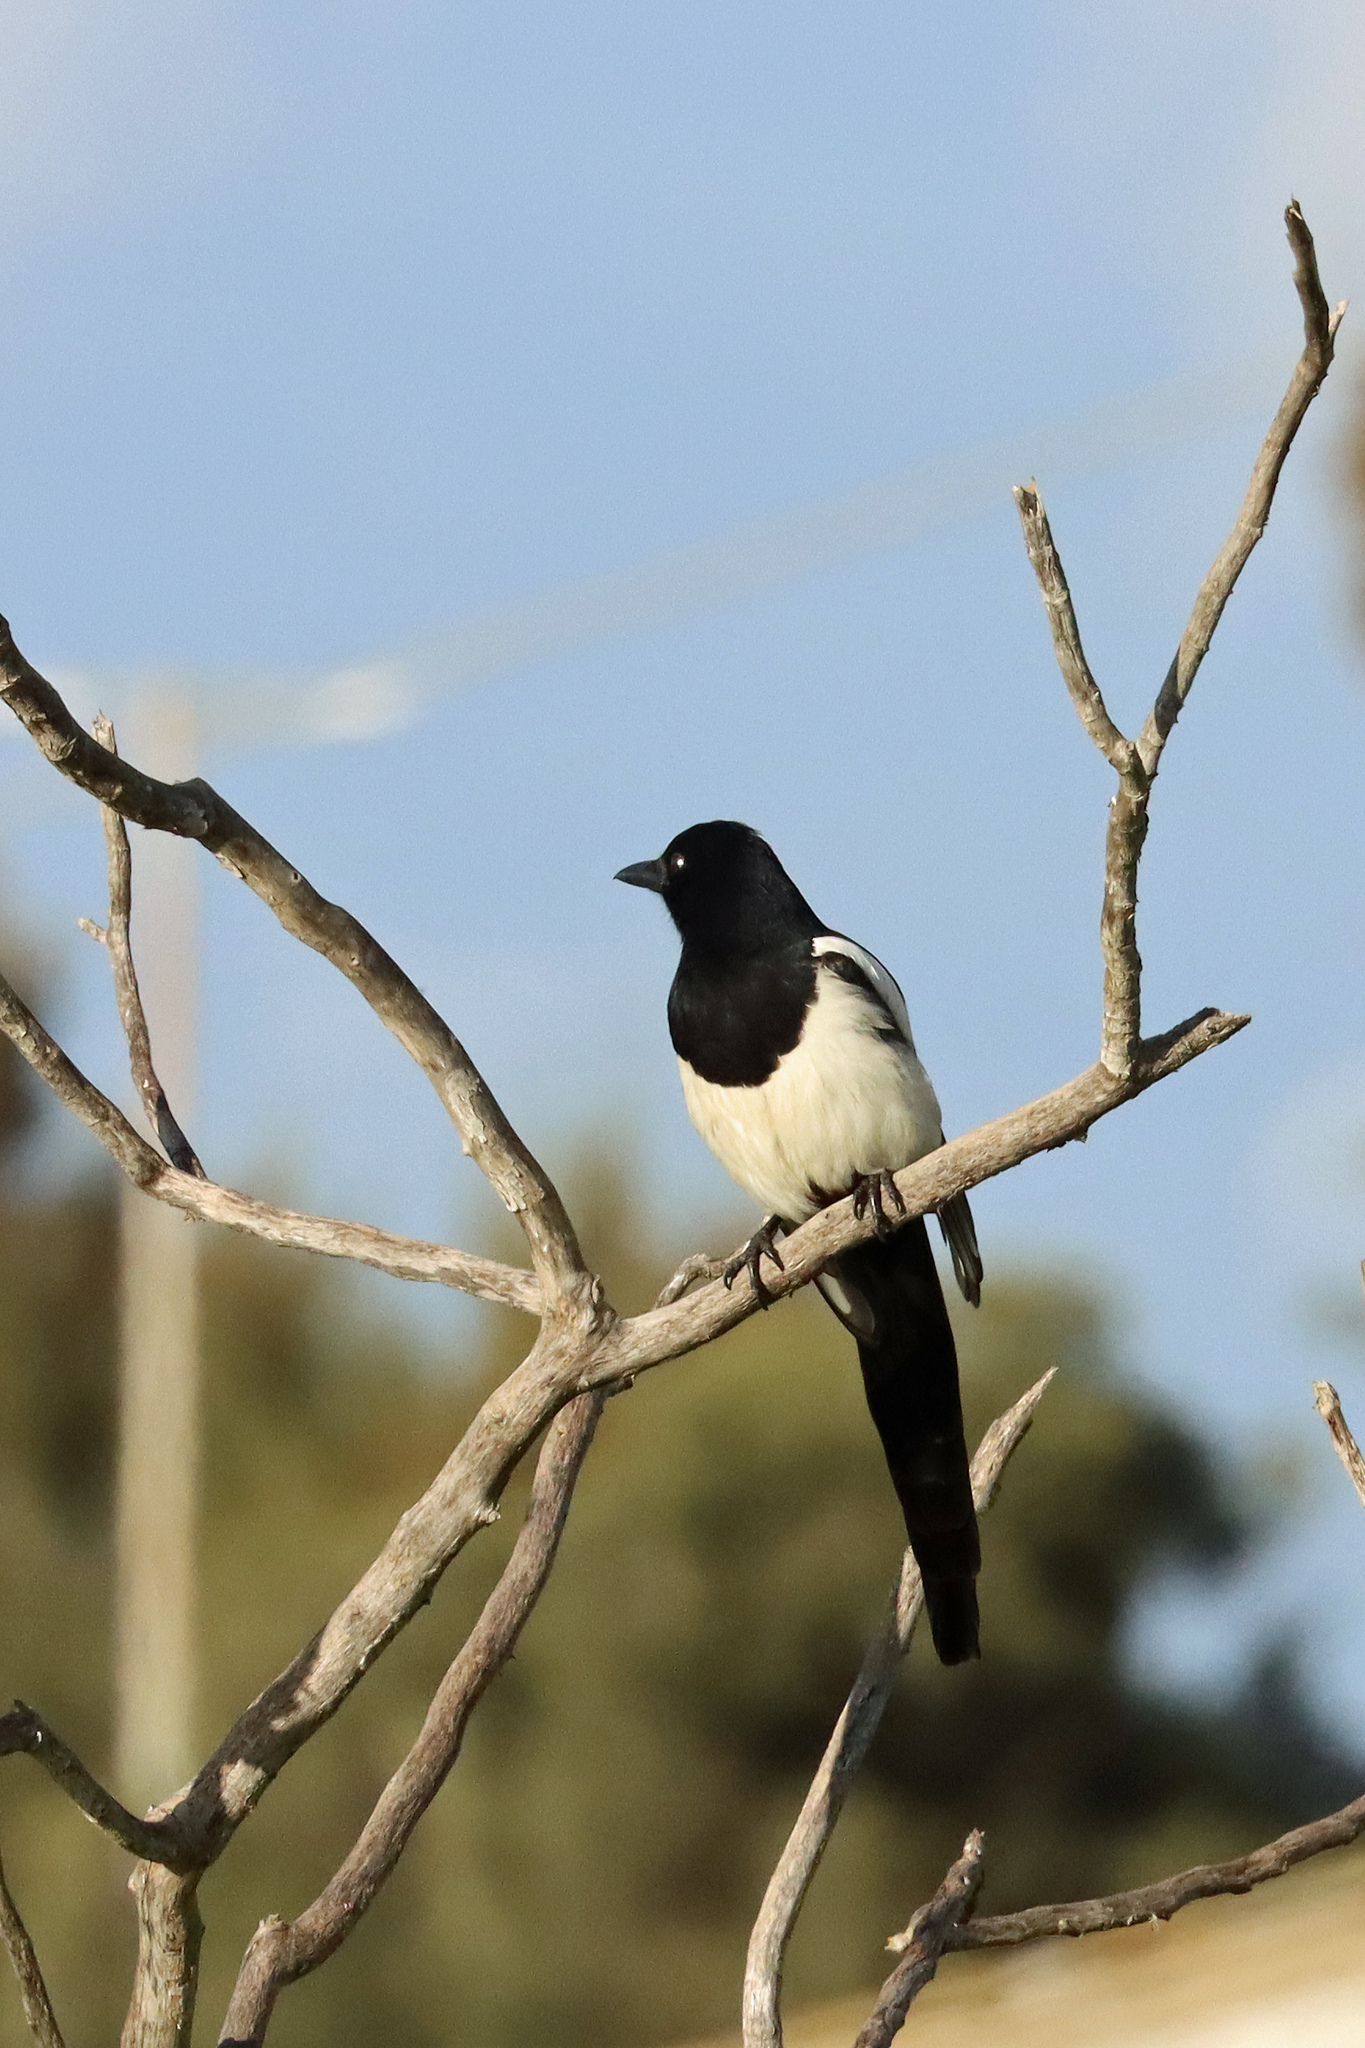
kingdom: Animalia
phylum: Chordata
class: Aves
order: Passeriformes
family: Corvidae
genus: Pica
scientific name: Pica pica
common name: Eurasian magpie
